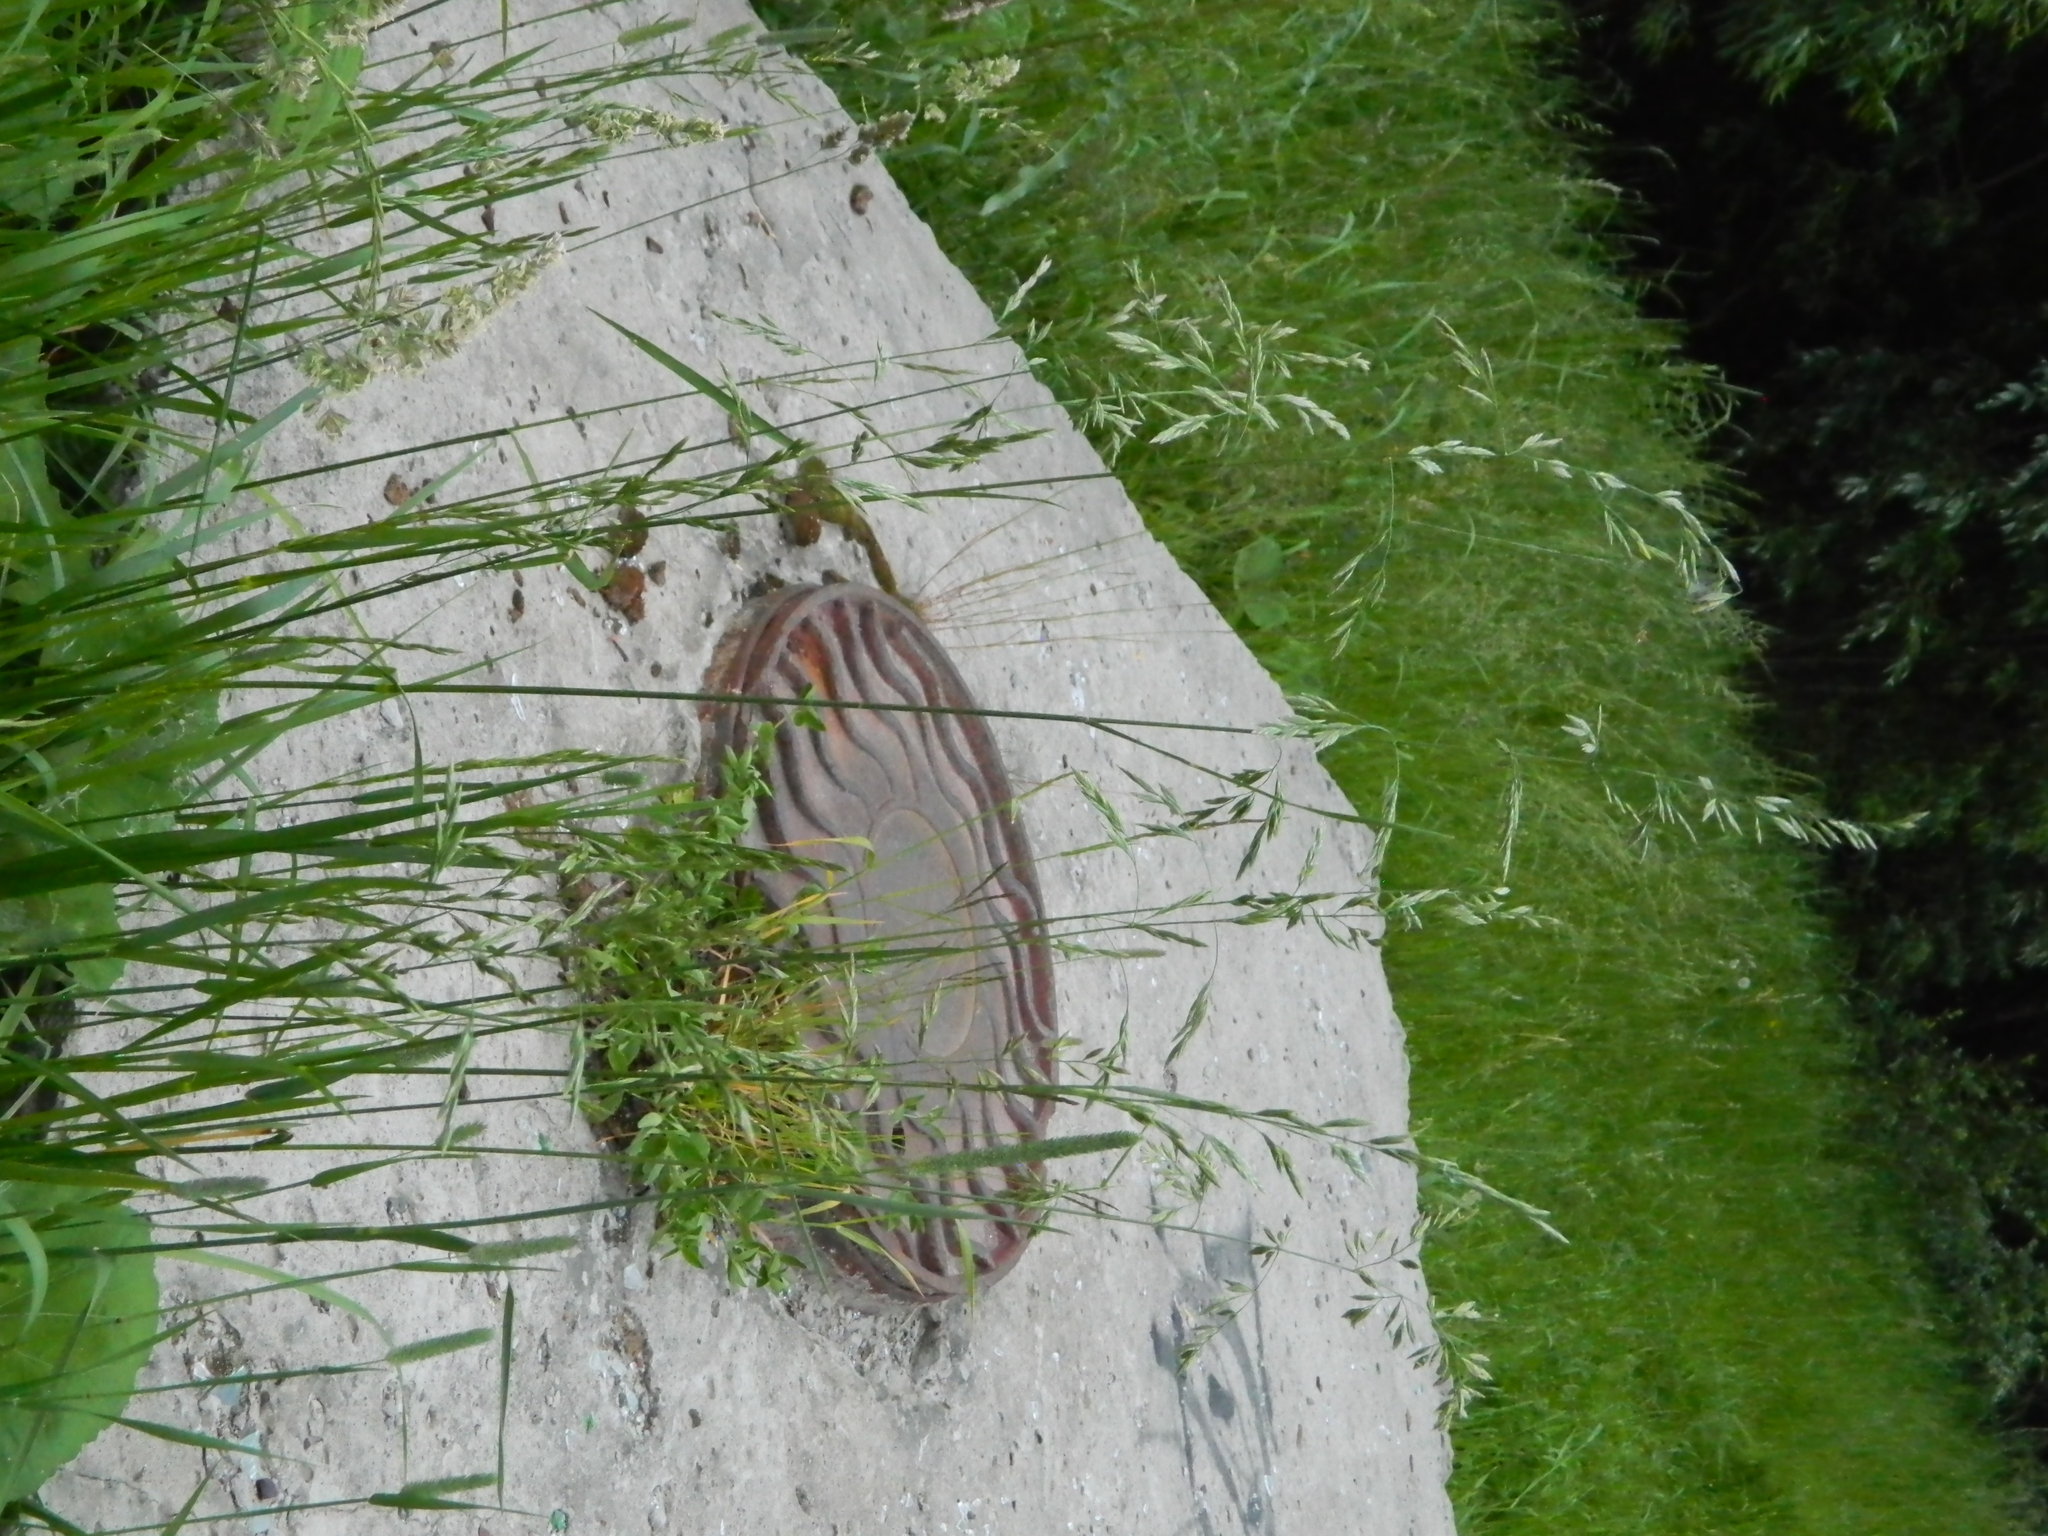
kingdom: Plantae
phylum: Tracheophyta
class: Liliopsida
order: Poales
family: Poaceae
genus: Lolium
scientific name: Lolium pratense
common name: Dover grass
